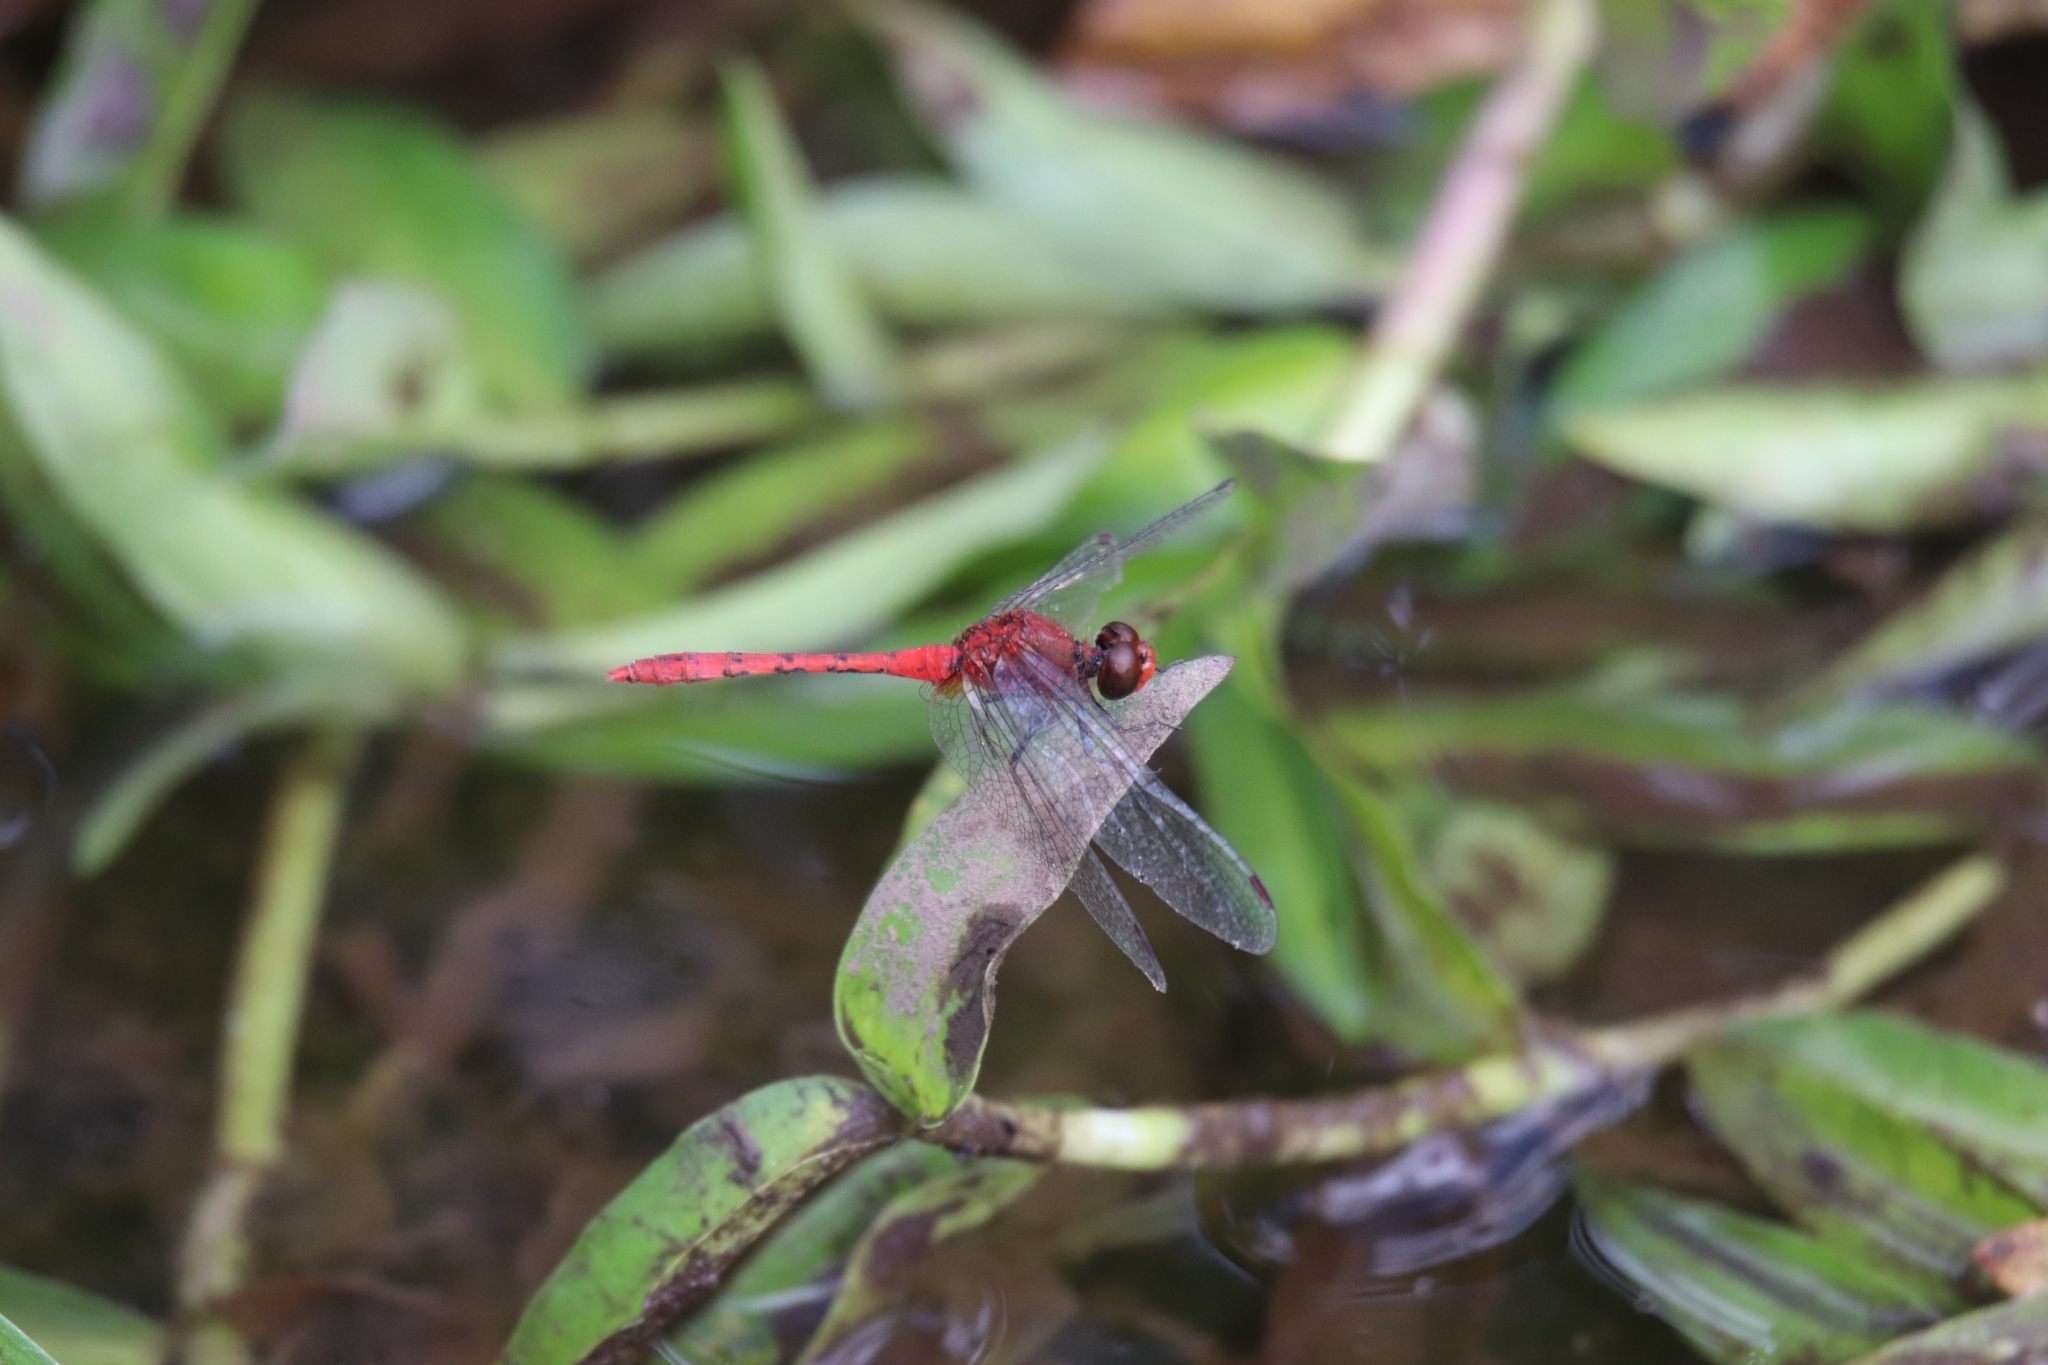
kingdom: Animalia
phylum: Arthropoda
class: Insecta
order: Odonata
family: Libellulidae
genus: Diplacodes
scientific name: Diplacodes bipunctata
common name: Red percher dragonfly
